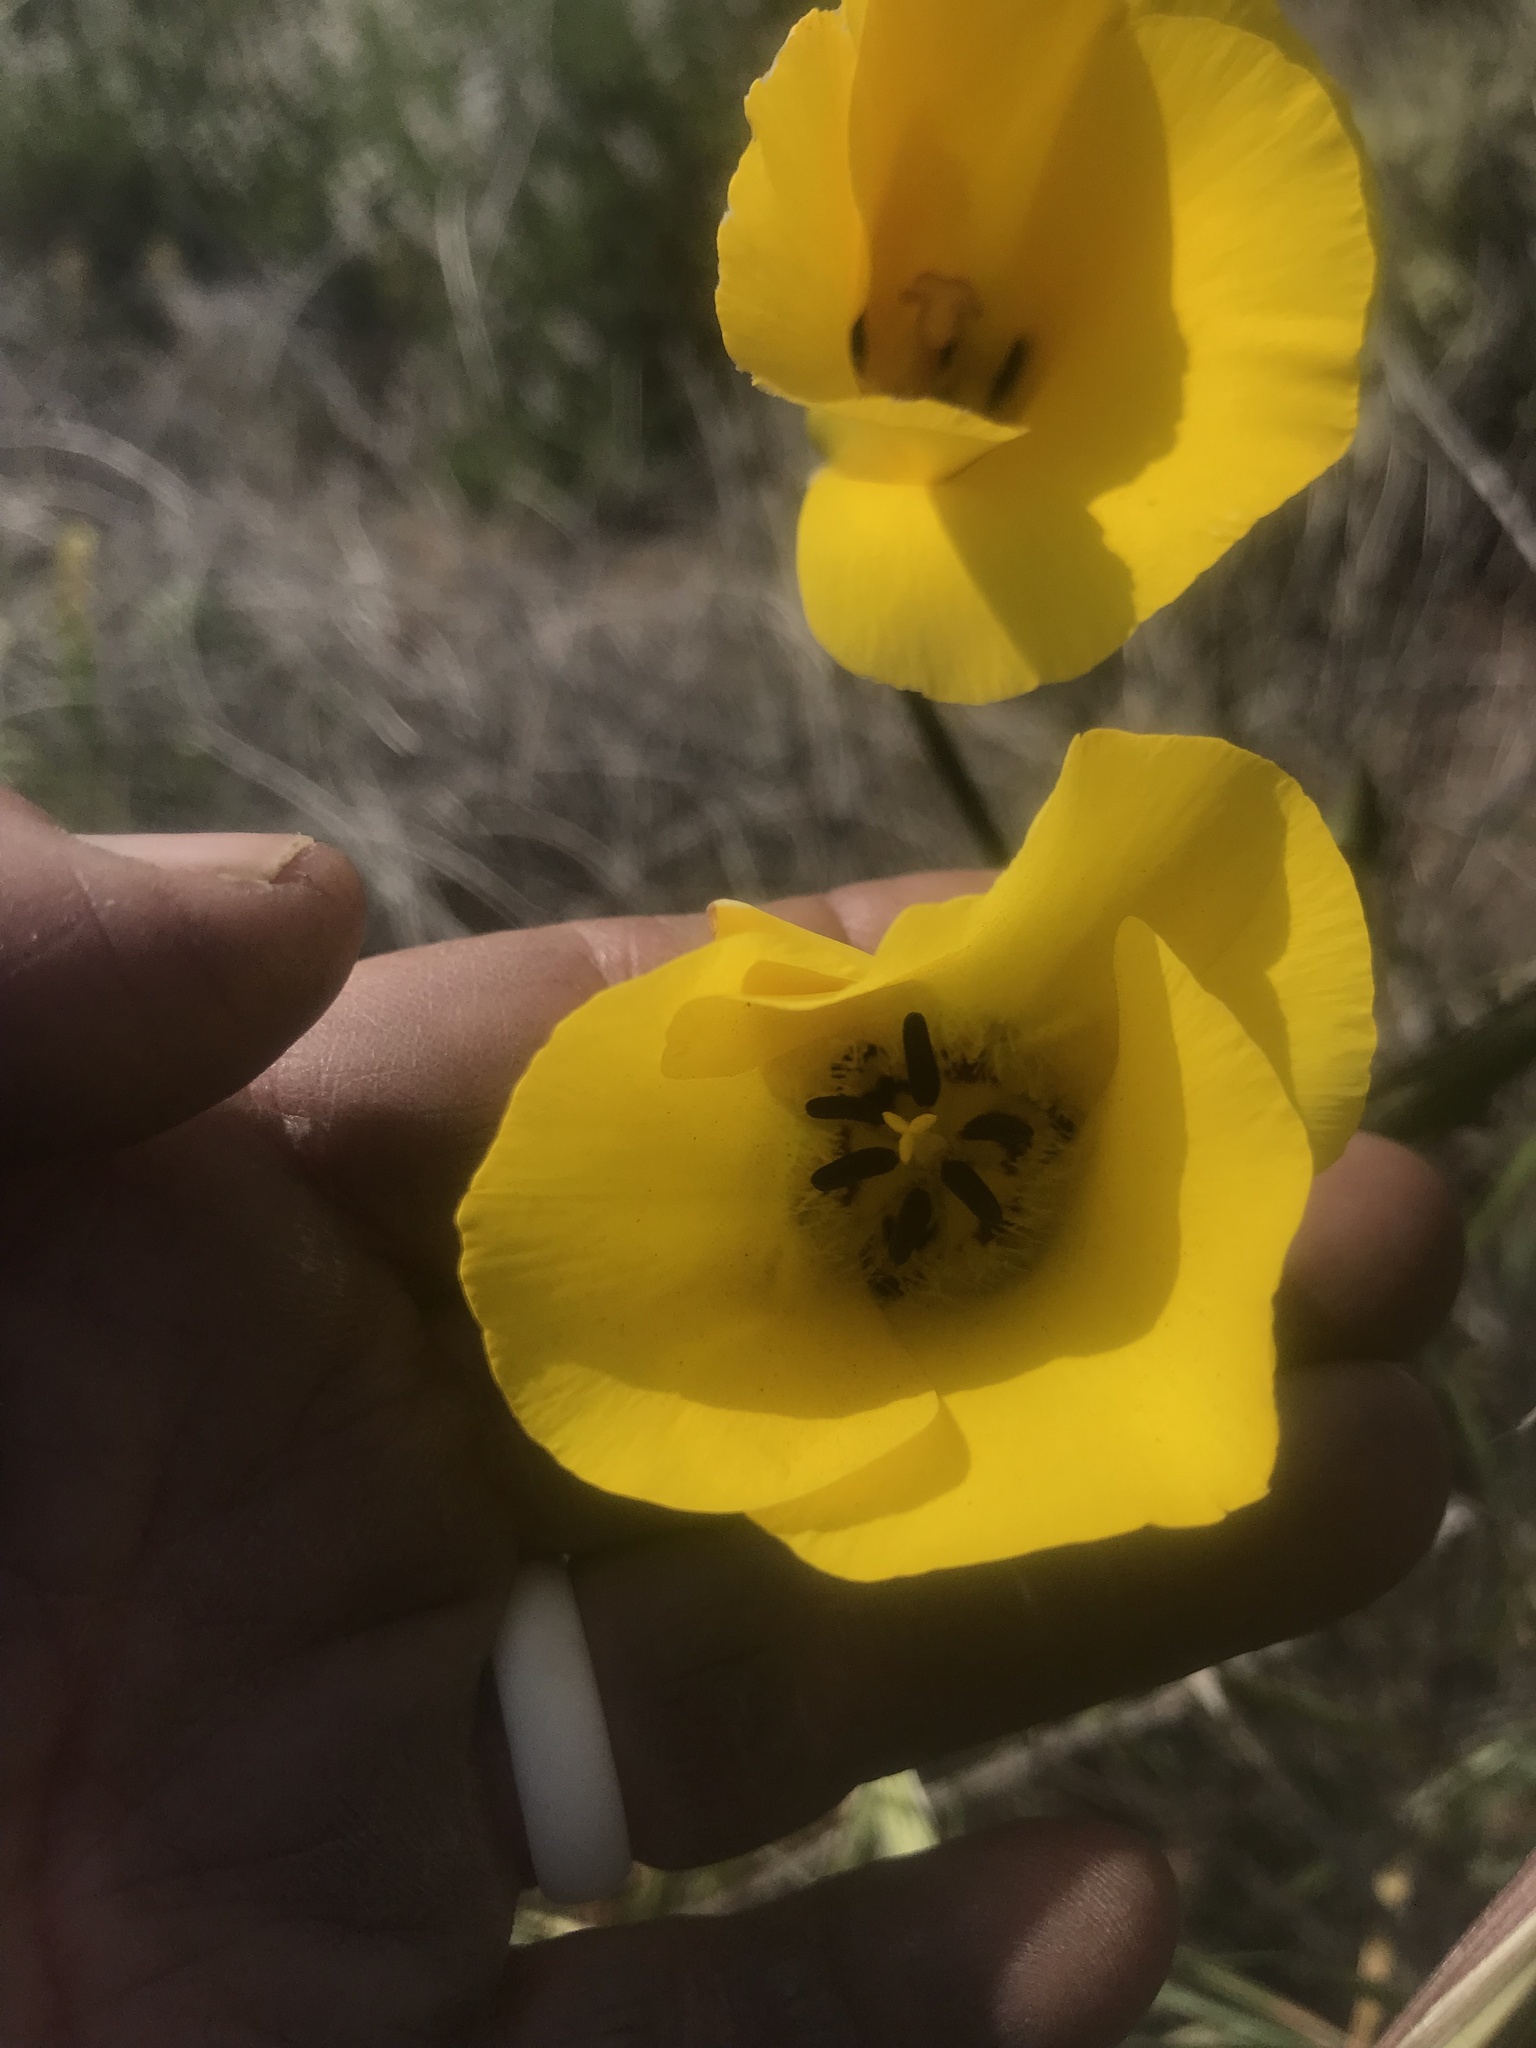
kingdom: Plantae
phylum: Tracheophyta
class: Liliopsida
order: Liliales
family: Liliaceae
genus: Calochortus
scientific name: Calochortus clavatus
